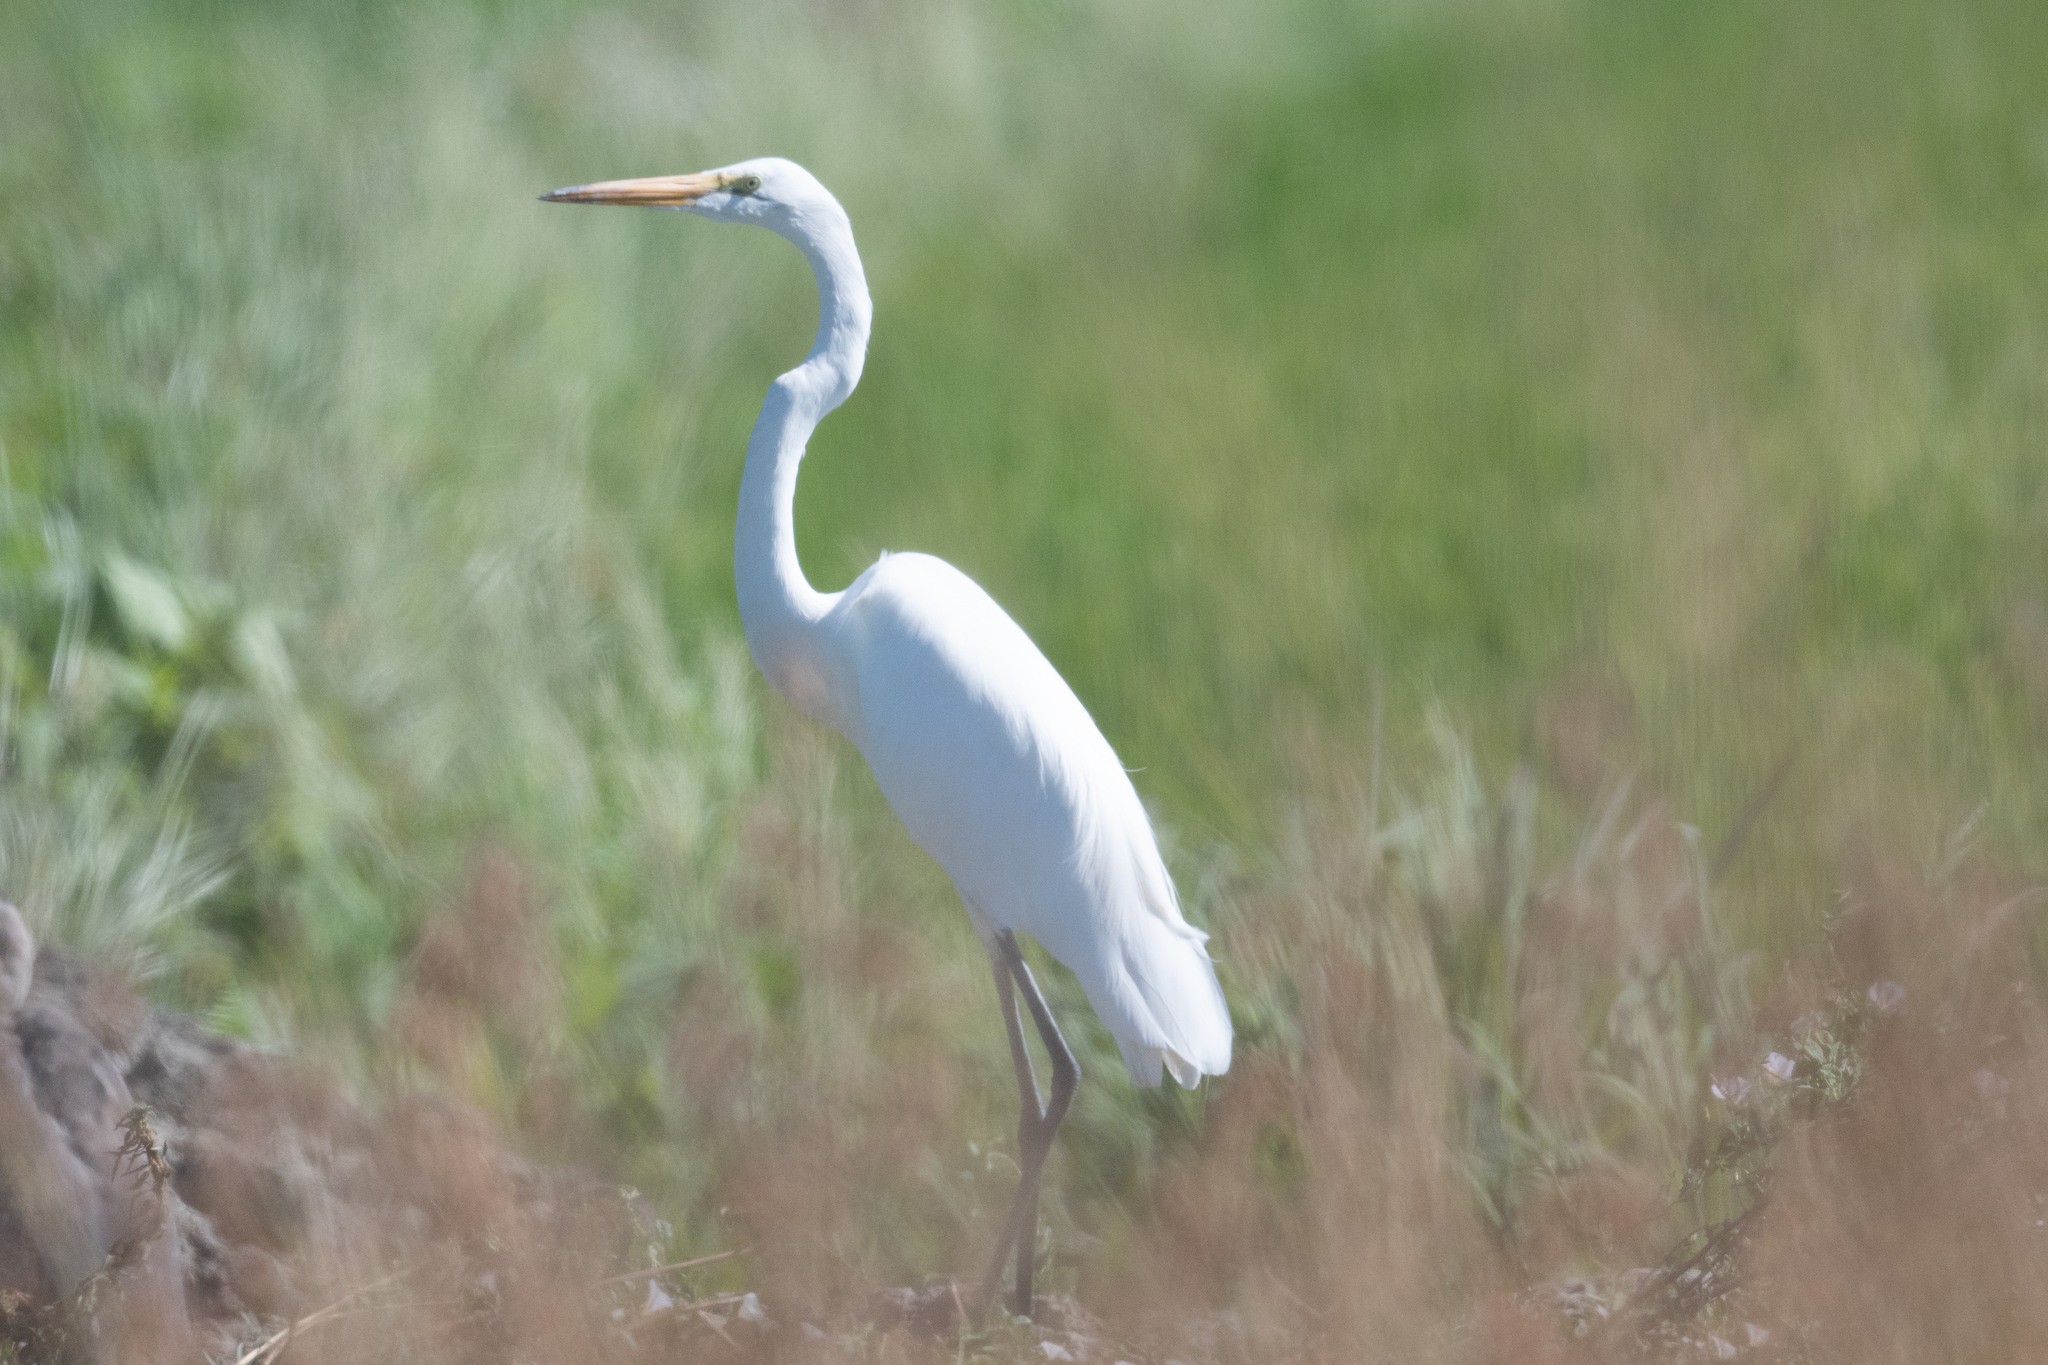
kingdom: Animalia
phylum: Chordata
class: Aves
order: Pelecaniformes
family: Ardeidae
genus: Ardea
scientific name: Ardea alba
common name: Great egret
